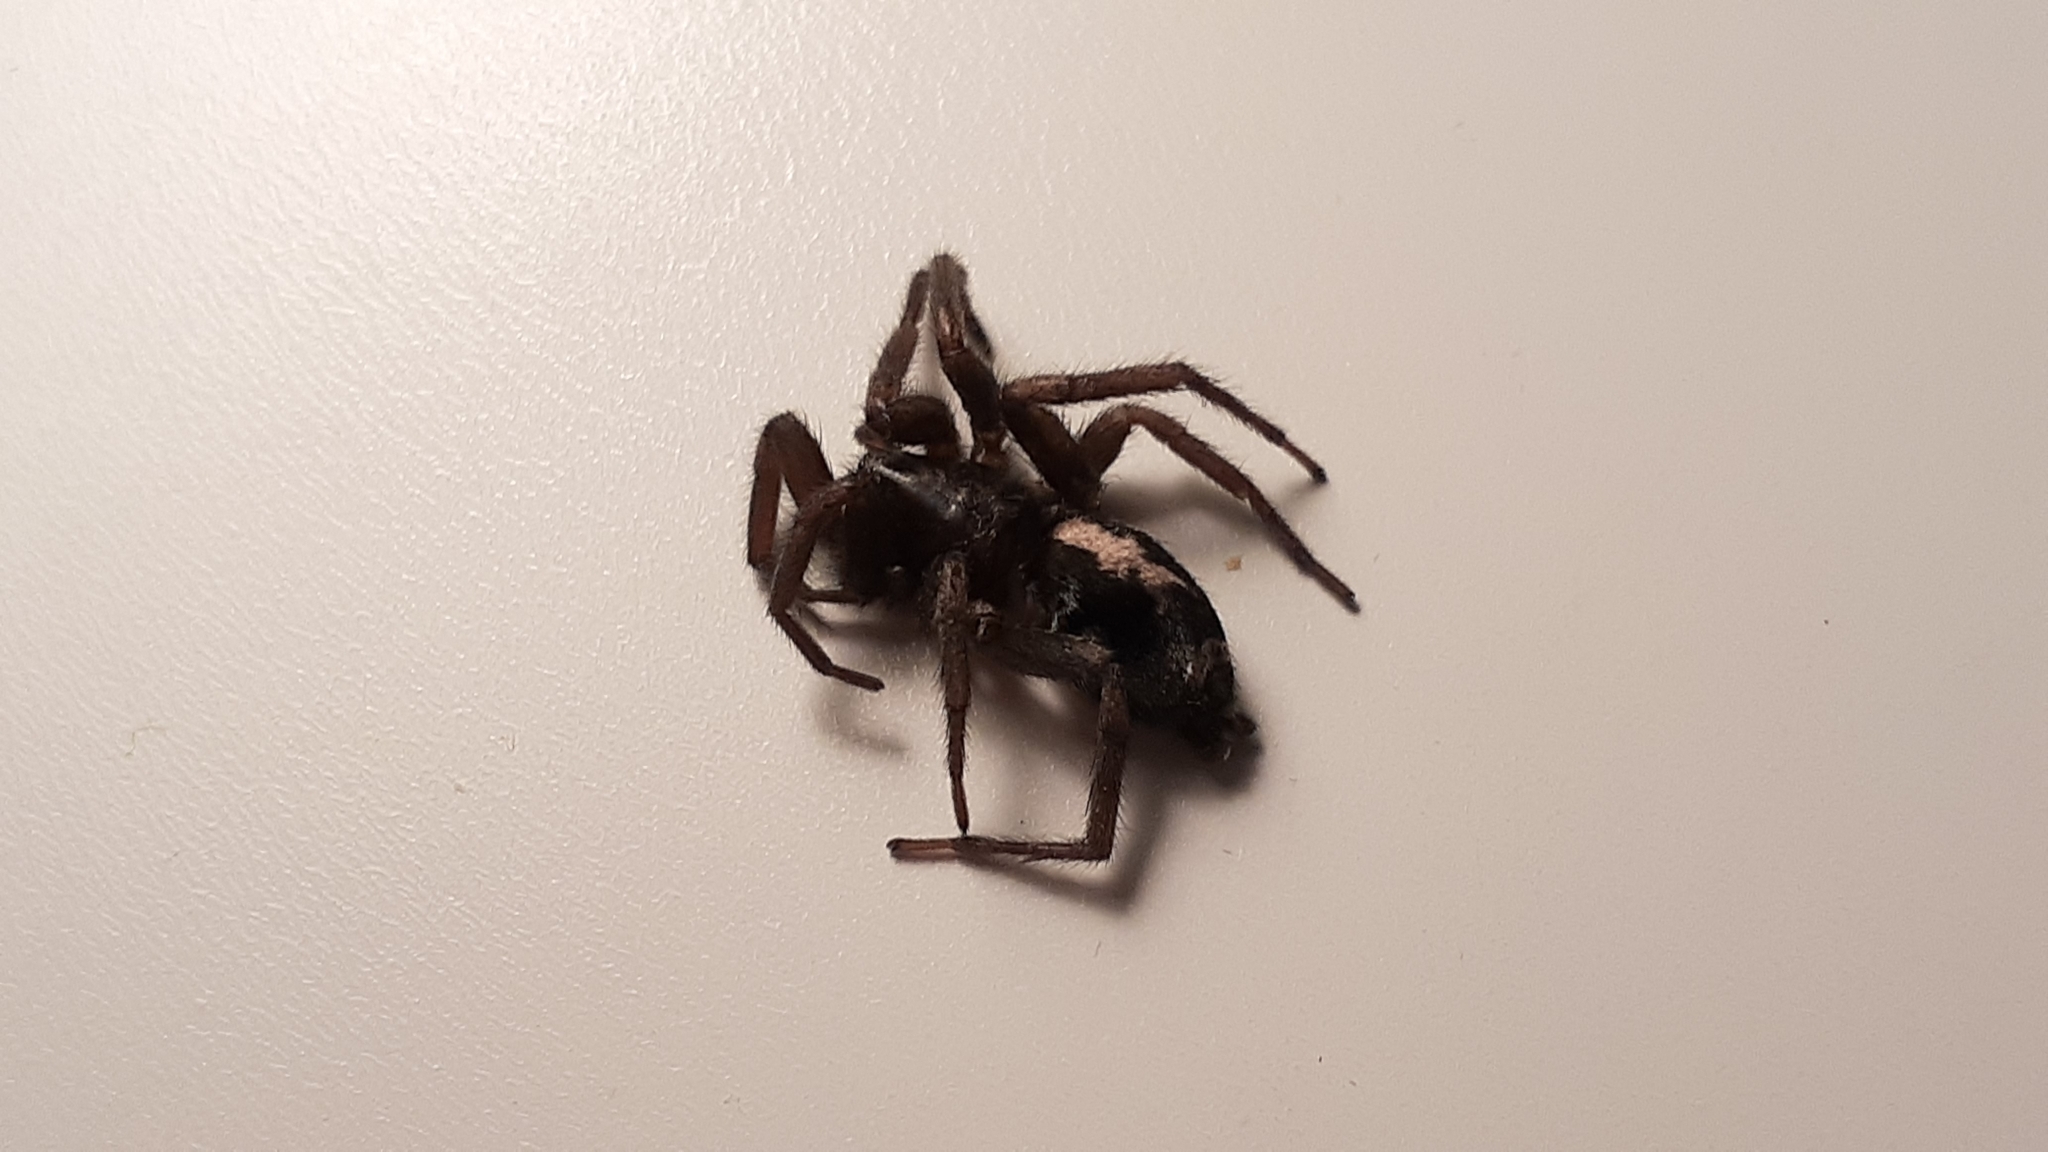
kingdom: Animalia
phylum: Arthropoda
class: Arachnida
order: Araneae
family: Gnaphosidae
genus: Herpyllus
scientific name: Herpyllus ecclesiasticus
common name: Eastern parson spider
